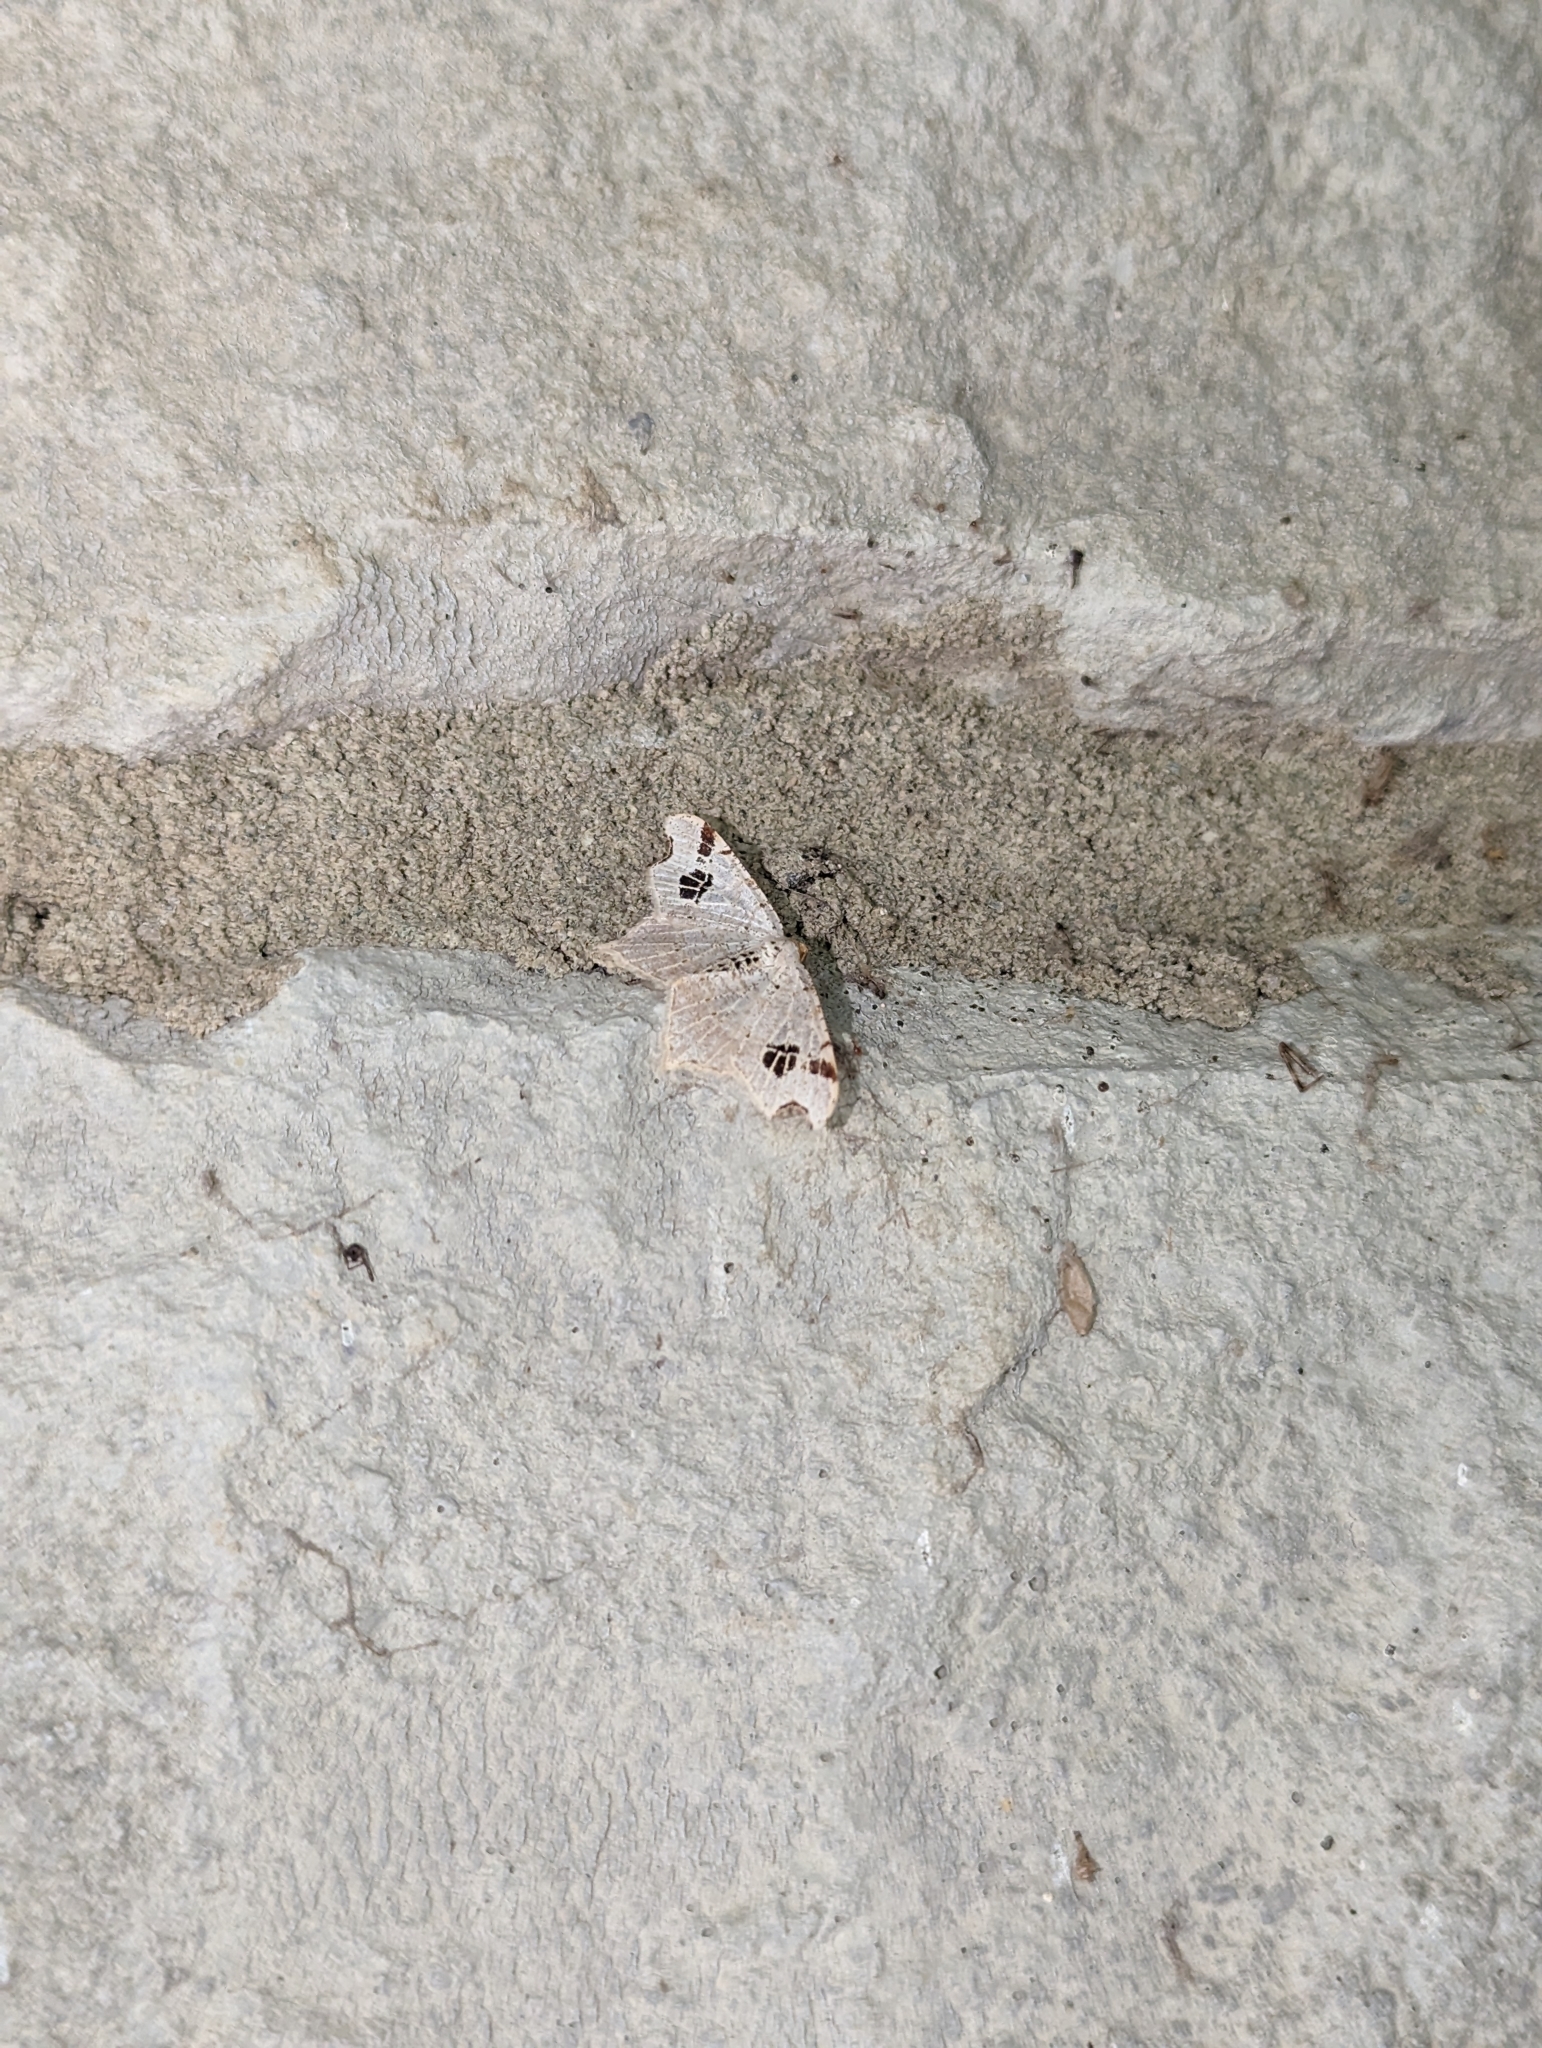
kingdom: Animalia
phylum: Arthropoda
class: Insecta
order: Lepidoptera
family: Geometridae
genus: Macaria
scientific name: Macaria aemulataria
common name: Common angle
